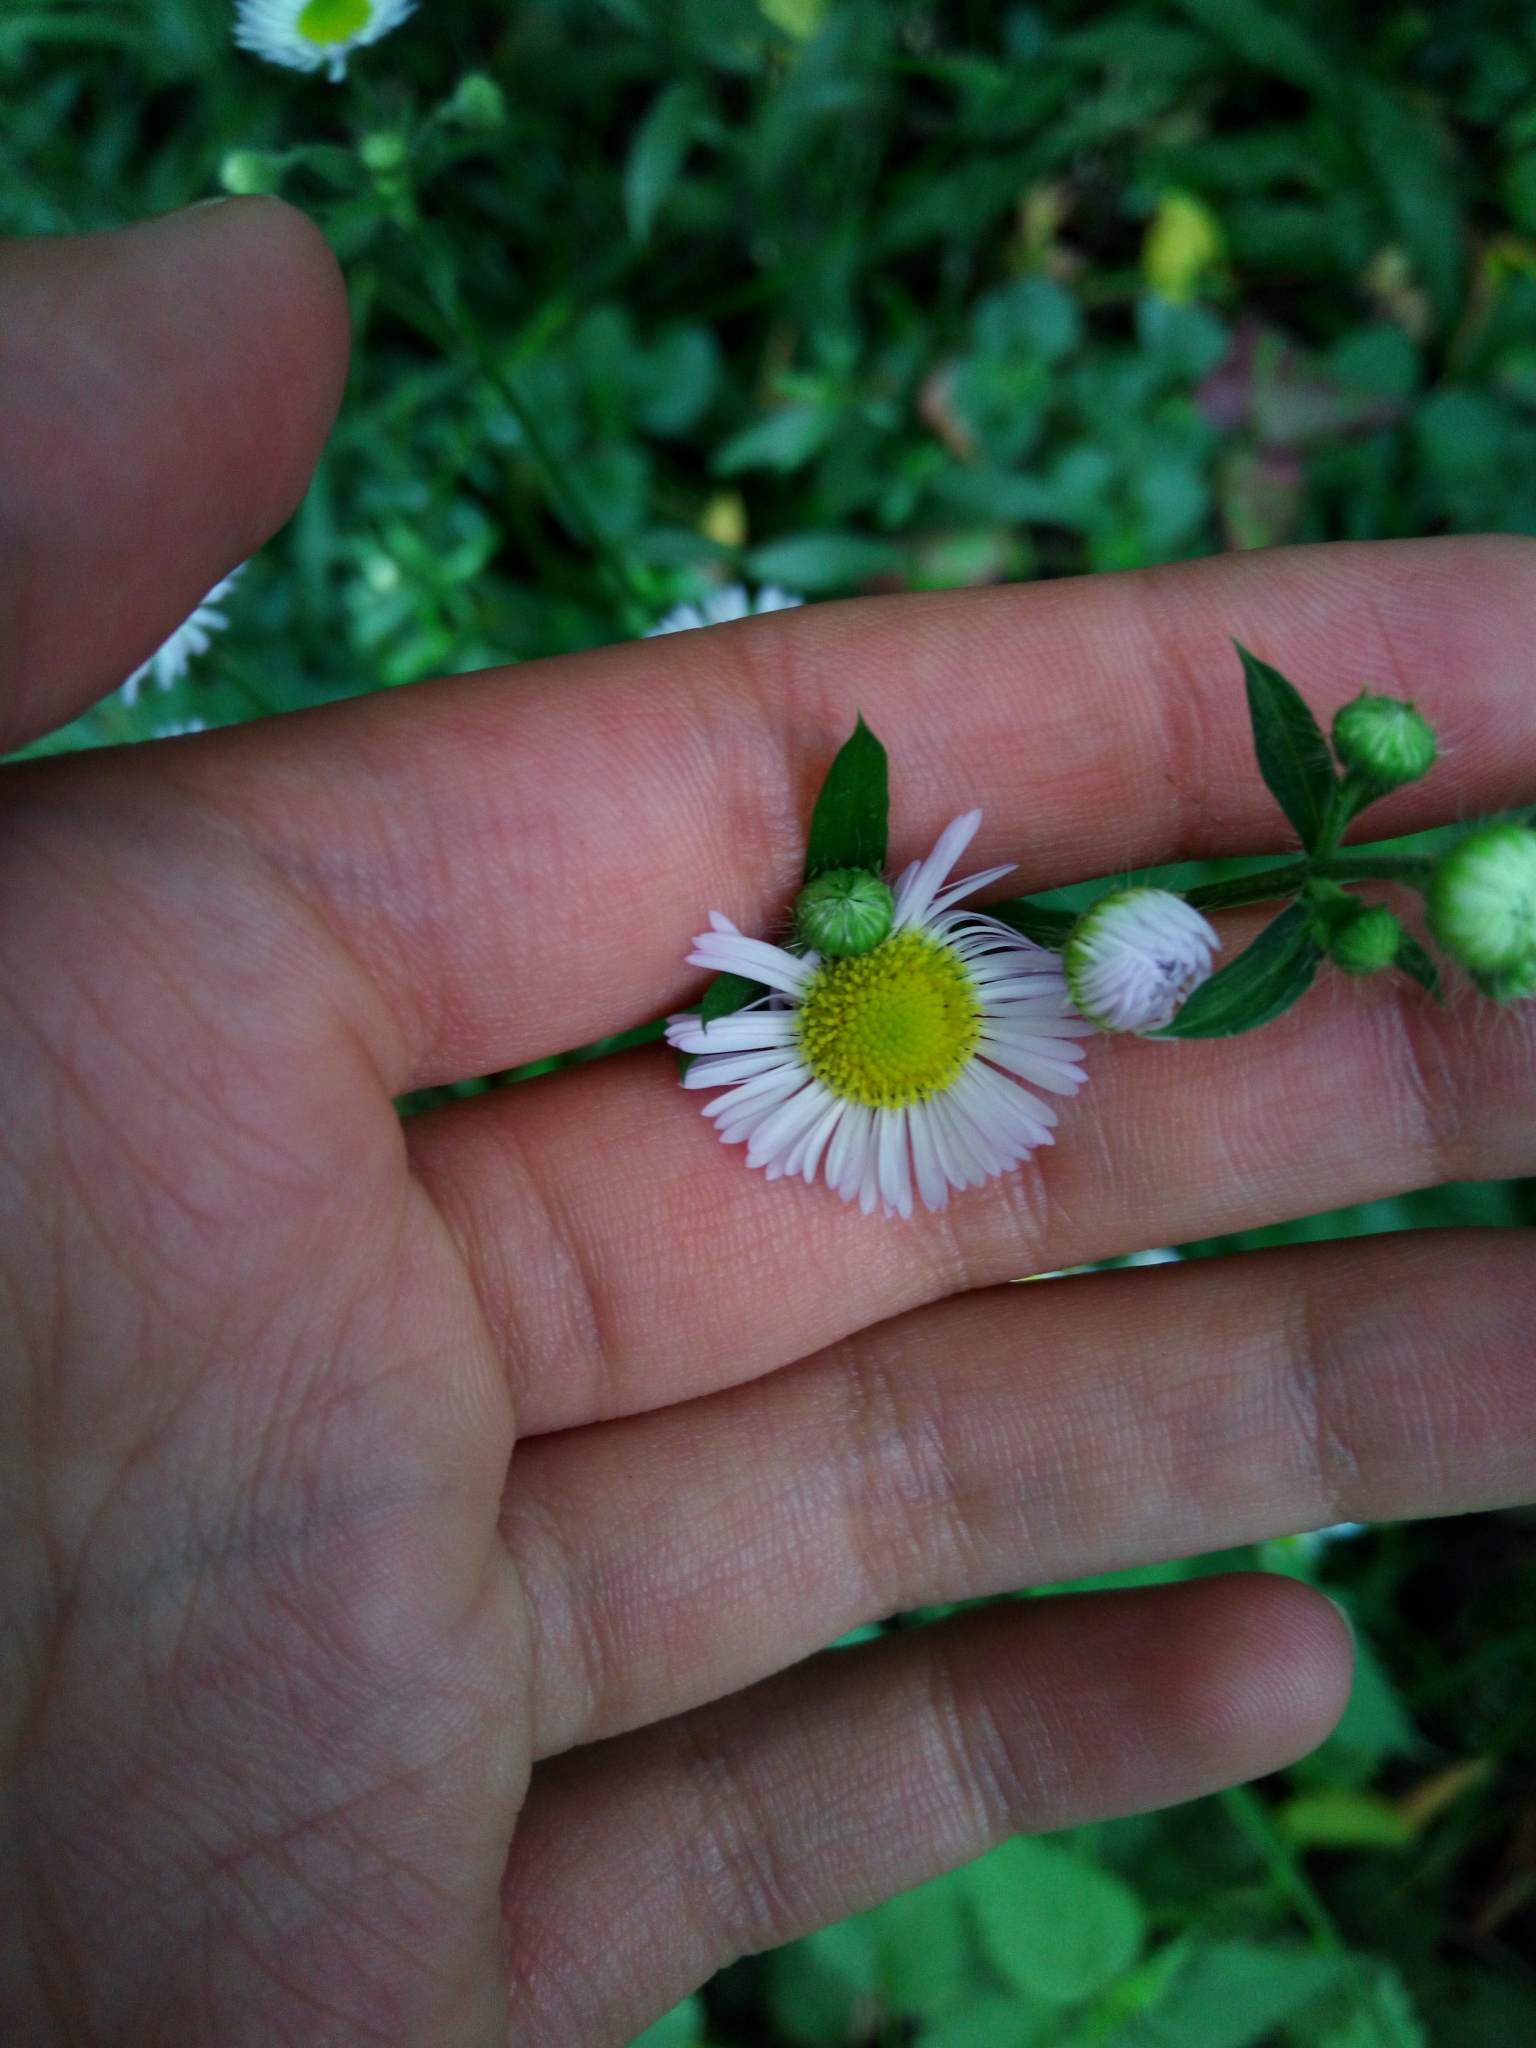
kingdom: Plantae
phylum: Tracheophyta
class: Magnoliopsida
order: Asterales
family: Asteraceae
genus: Erigeron
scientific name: Erigeron annuus
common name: Tall fleabane
